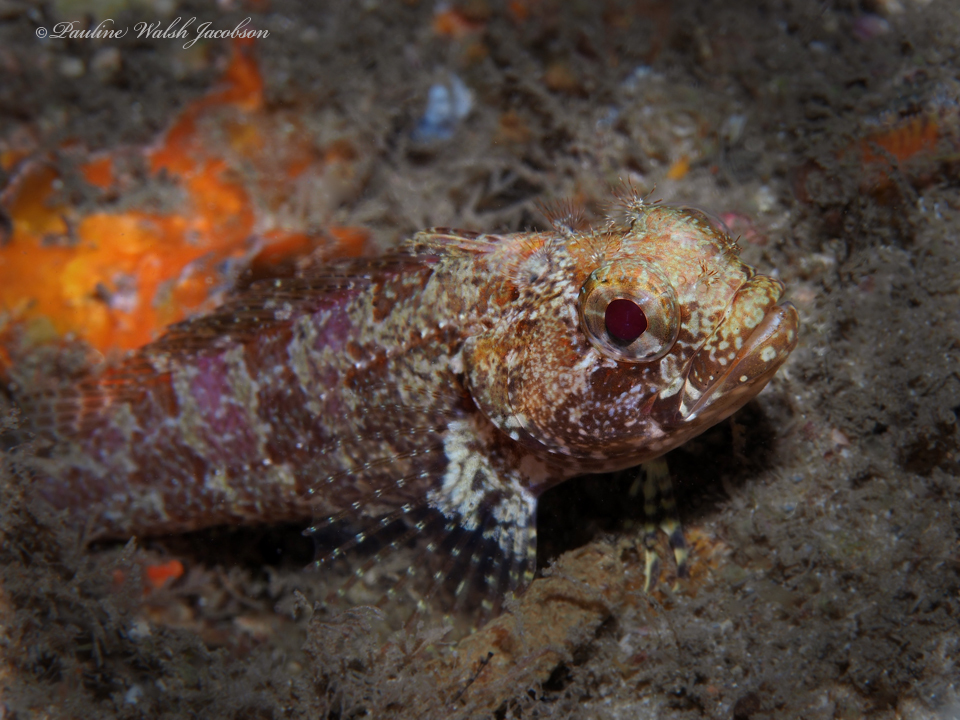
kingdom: Animalia
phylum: Chordata
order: Perciformes
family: Labrisomidae
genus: Gobioclinus
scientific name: Gobioclinus kalisherae
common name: Downy blenny
